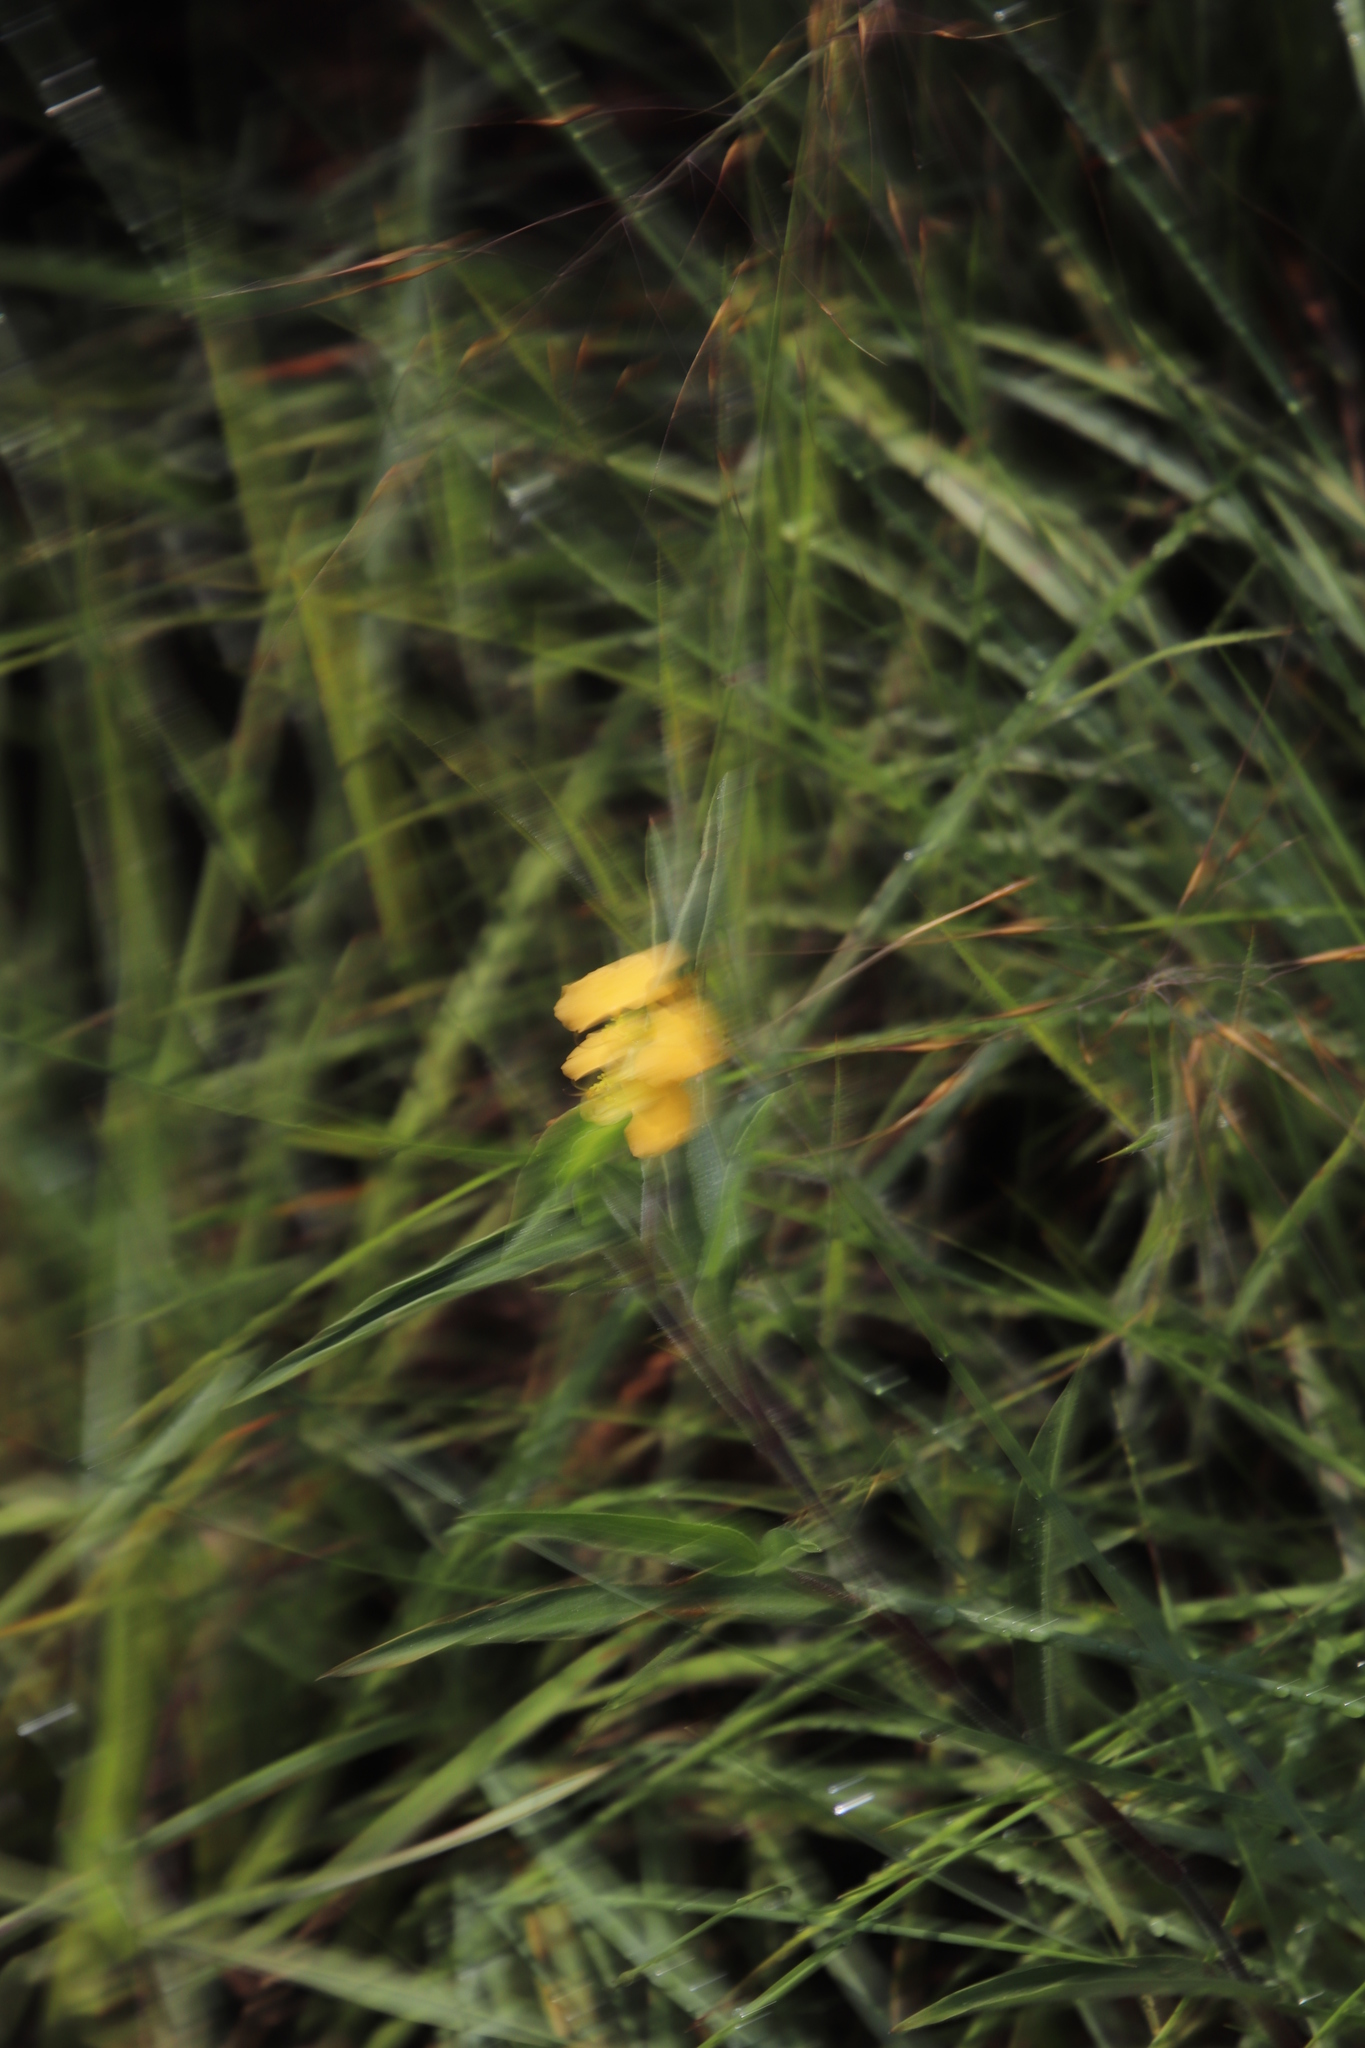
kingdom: Plantae
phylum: Tracheophyta
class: Liliopsida
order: Commelinales
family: Commelinaceae
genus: Commelina
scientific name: Commelina africana
